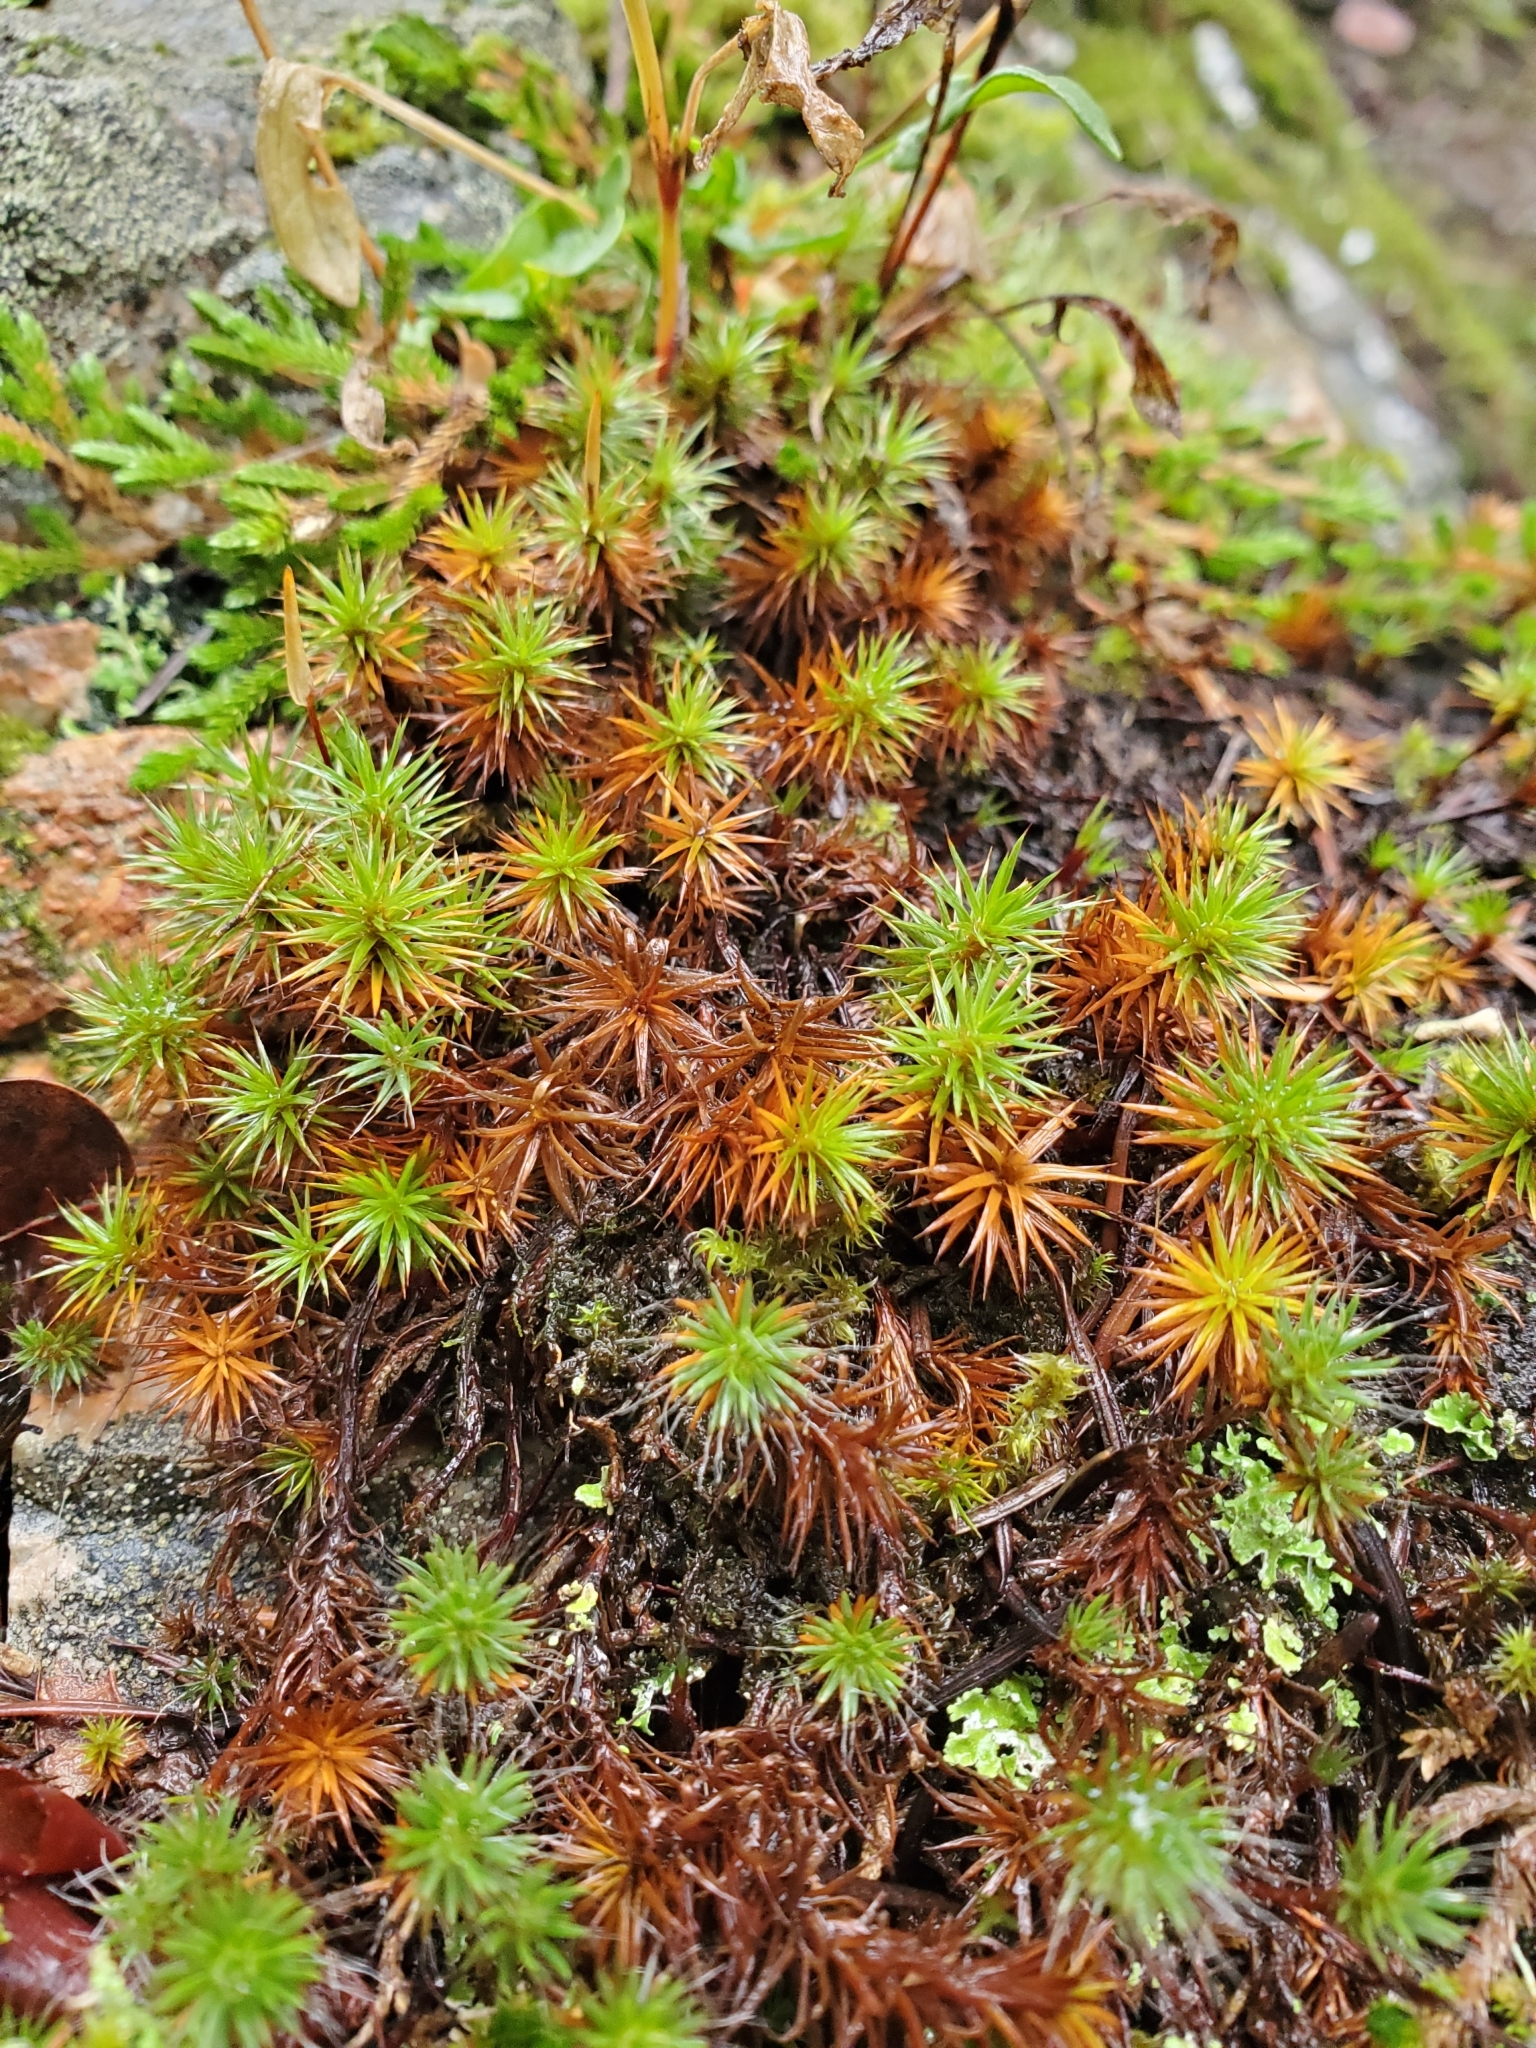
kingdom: Plantae
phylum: Bryophyta
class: Polytrichopsida
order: Polytrichales
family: Polytrichaceae
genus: Polytrichum
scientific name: Polytrichum juniperinum
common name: Juniper haircap moss
